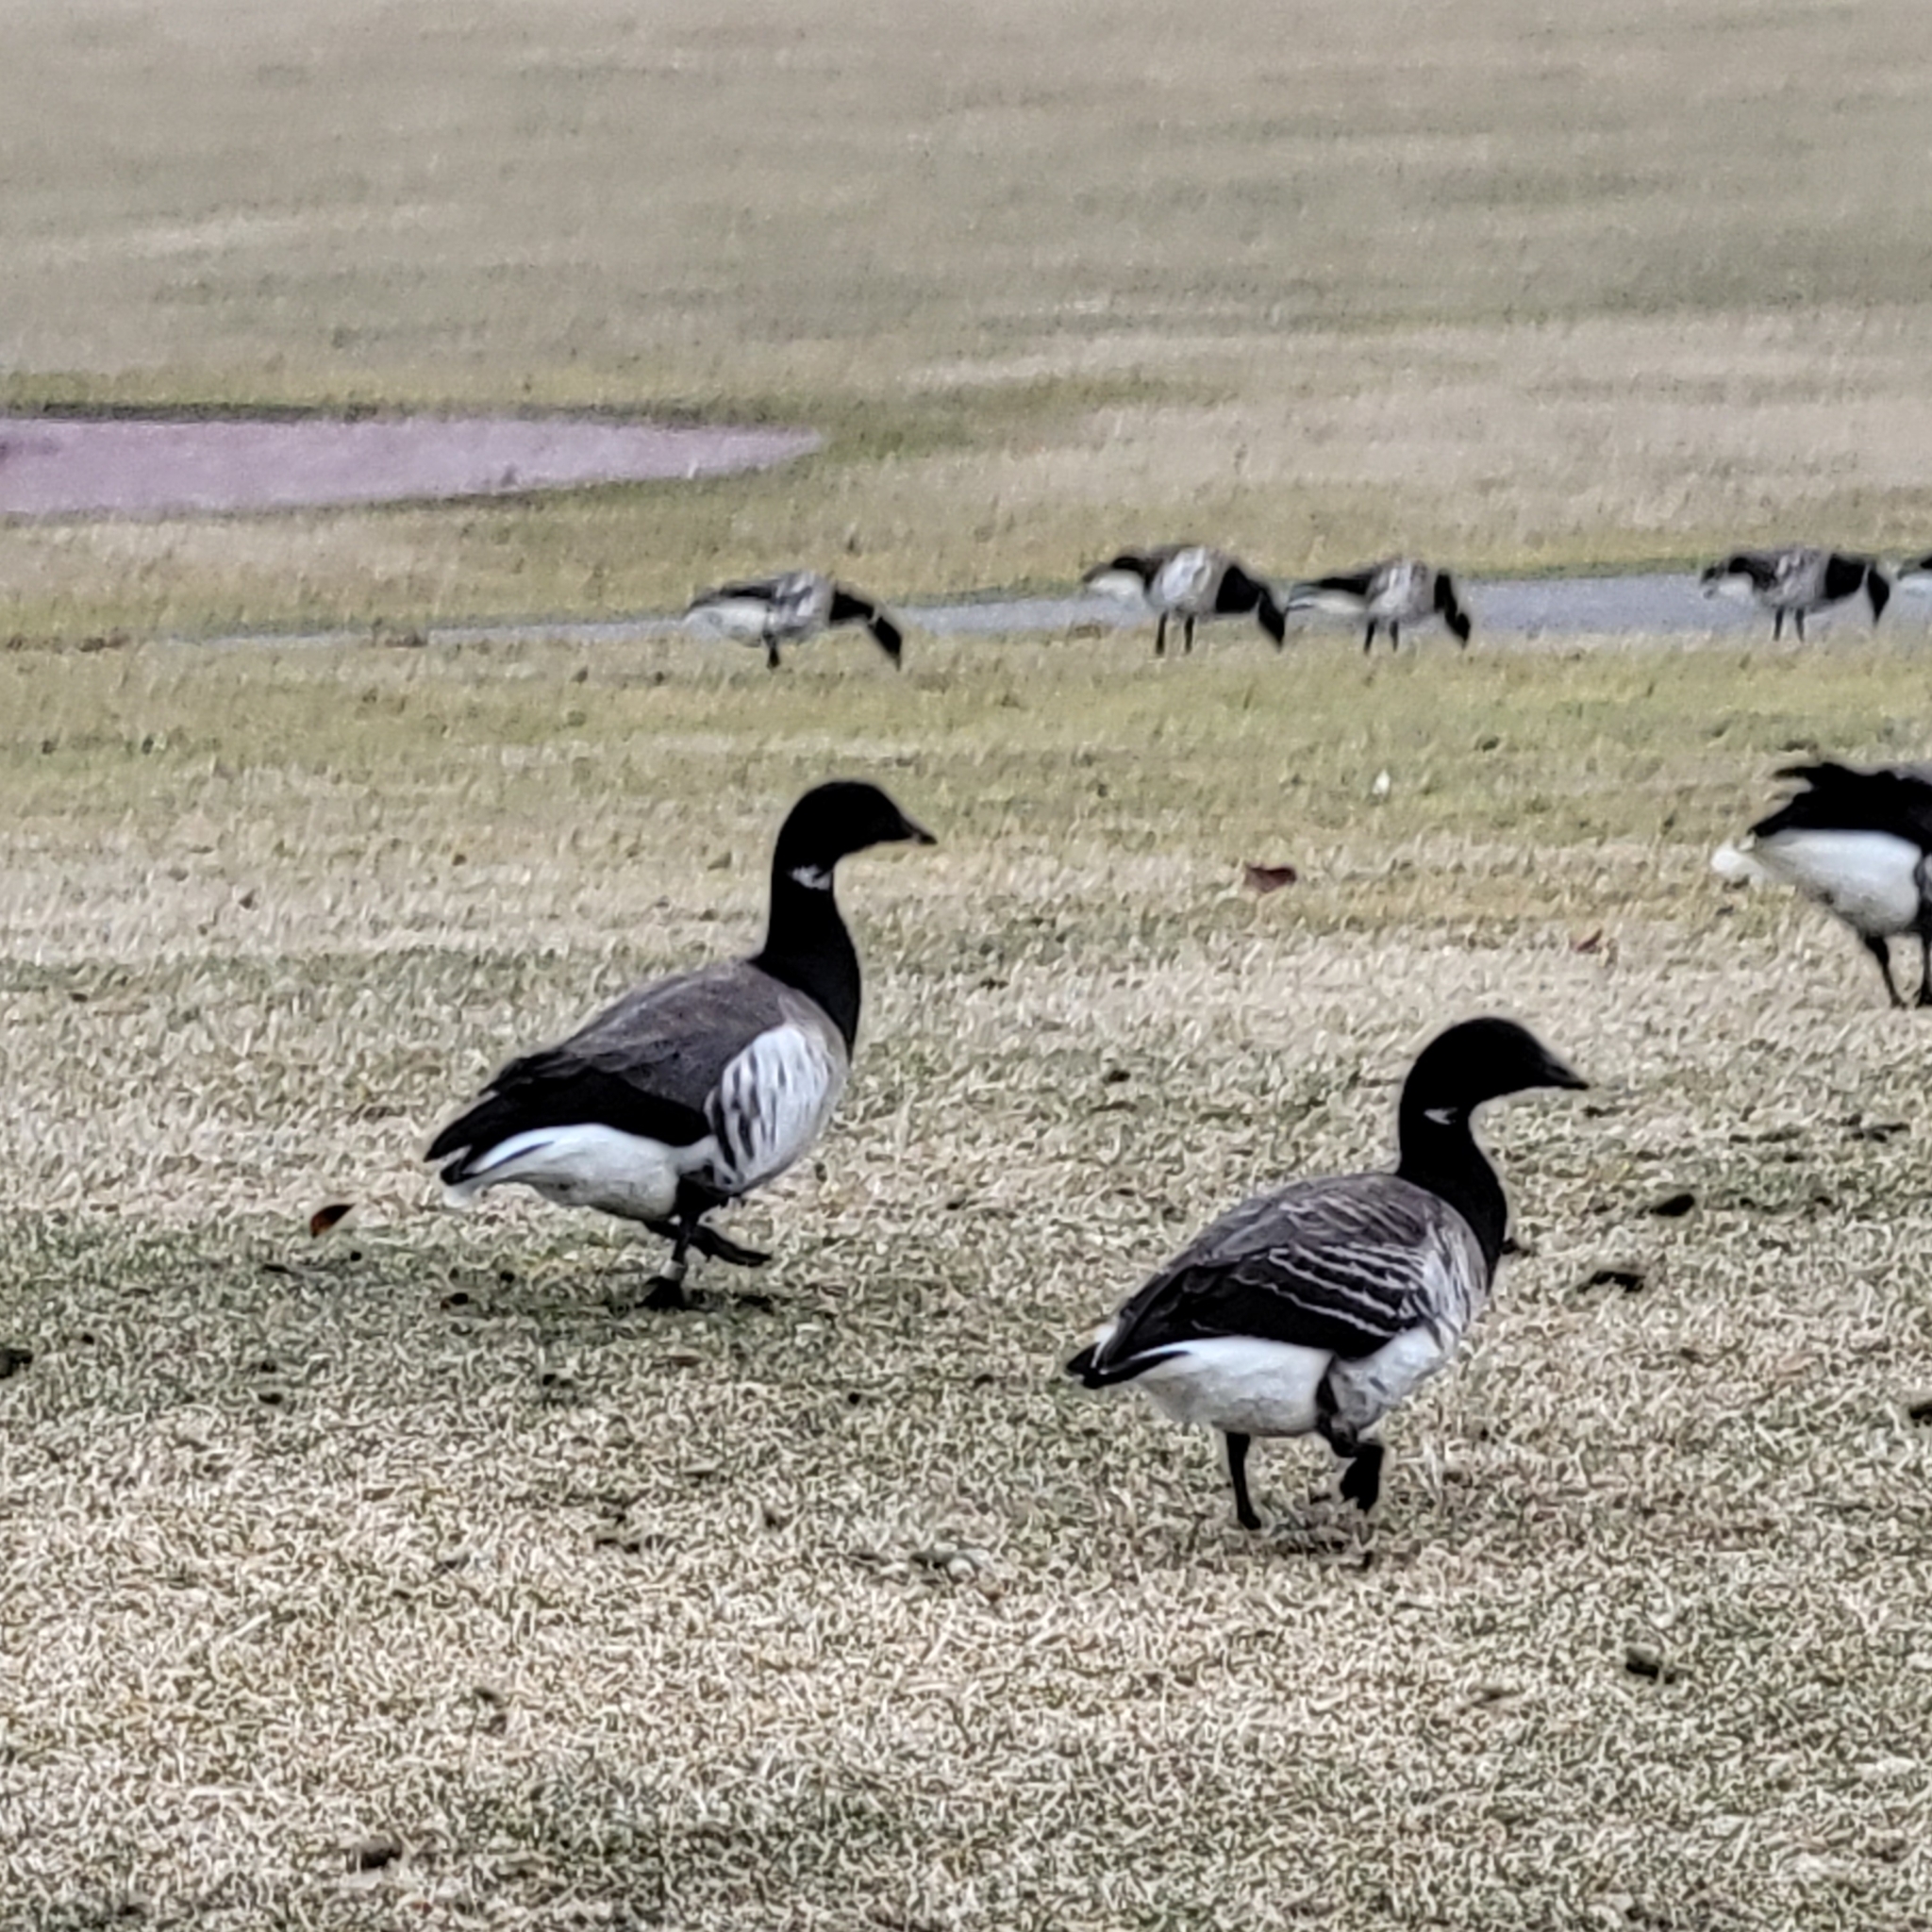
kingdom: Animalia
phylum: Chordata
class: Aves
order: Anseriformes
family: Anatidae
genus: Branta
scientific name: Branta bernicla
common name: Brant goose
